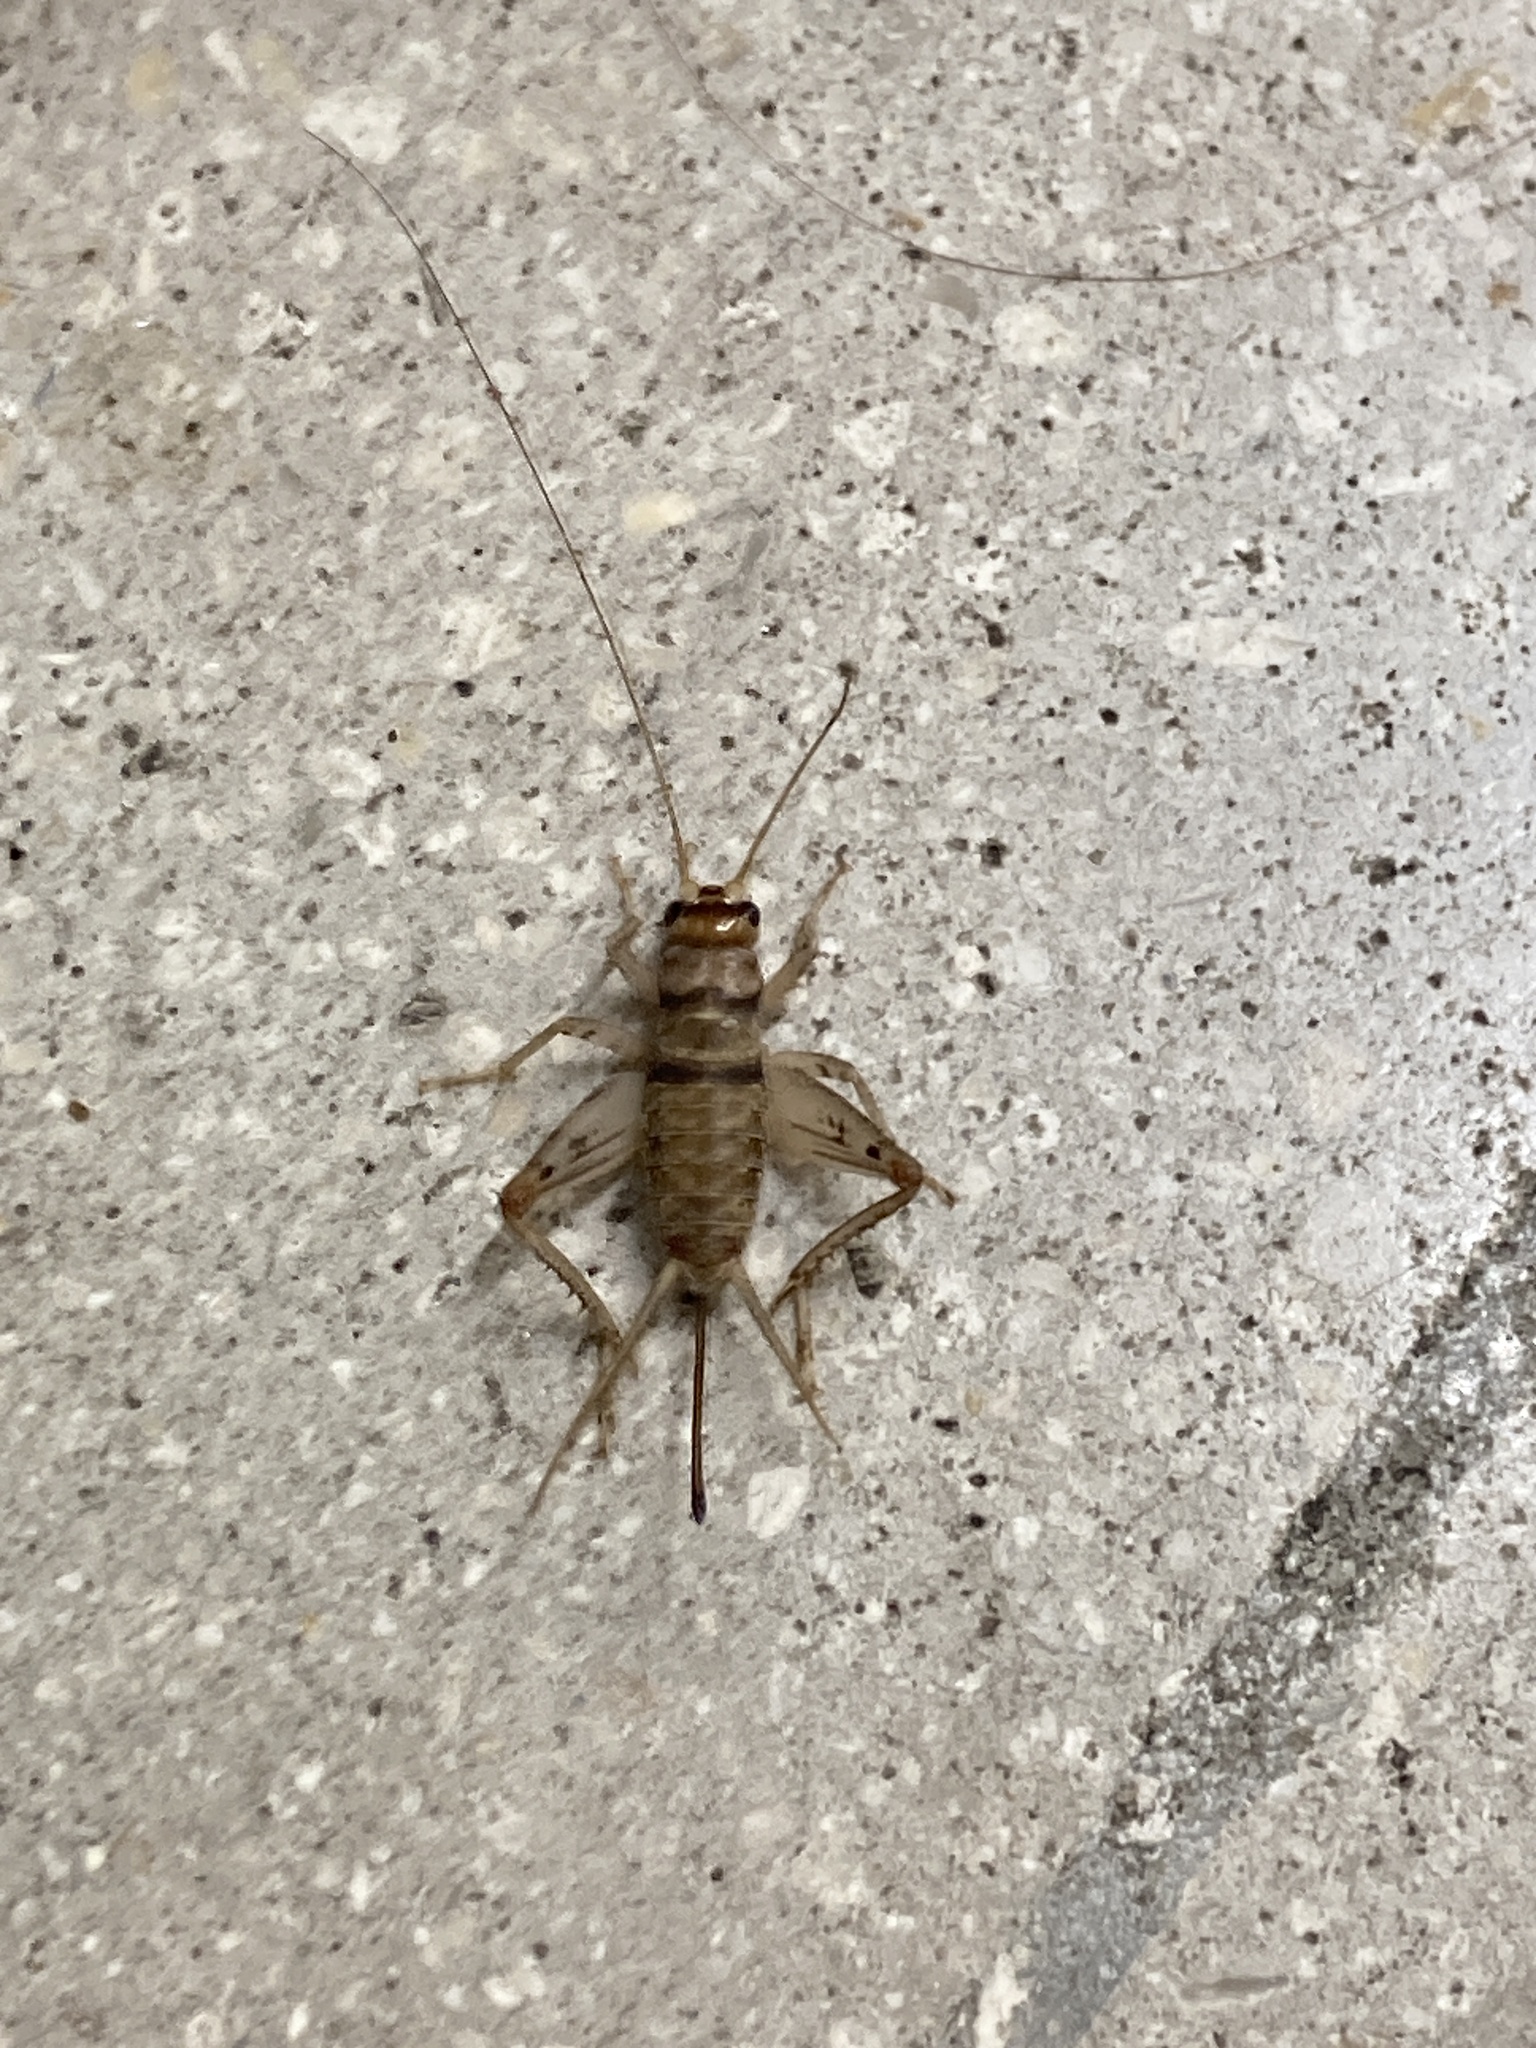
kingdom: Animalia
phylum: Arthropoda
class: Insecta
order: Orthoptera
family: Gryllidae
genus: Gryllodes
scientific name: Gryllodes sigillatus
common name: Tropical house cricket
